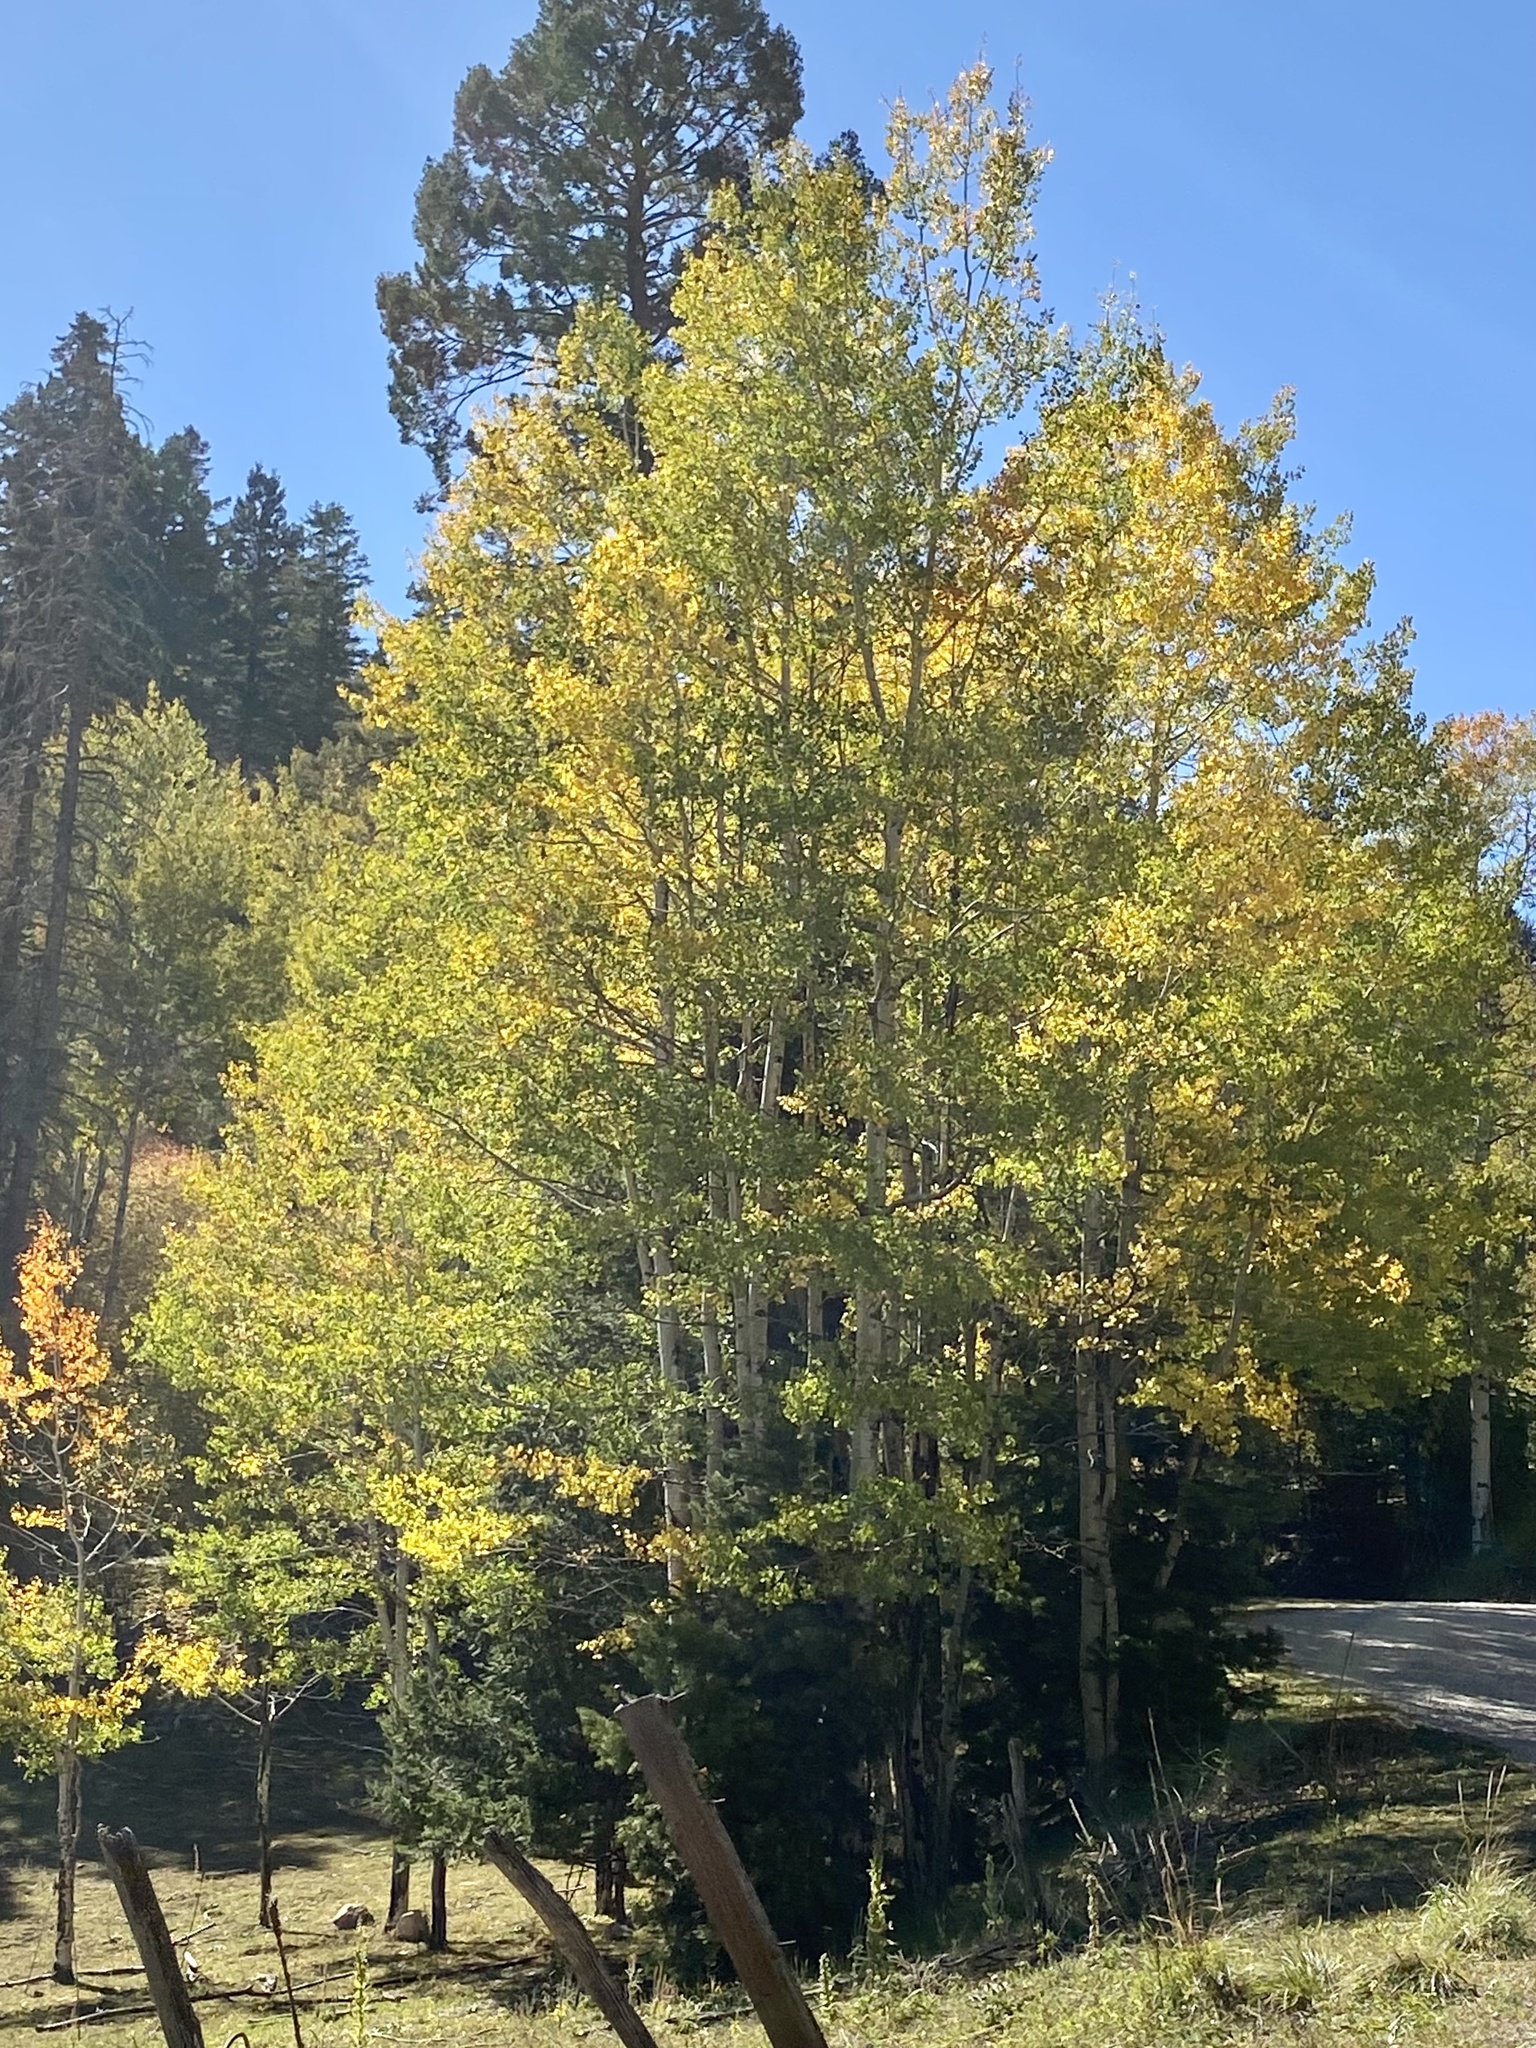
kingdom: Plantae
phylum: Tracheophyta
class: Magnoliopsida
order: Malpighiales
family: Salicaceae
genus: Populus
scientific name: Populus tremuloides
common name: Quaking aspen
